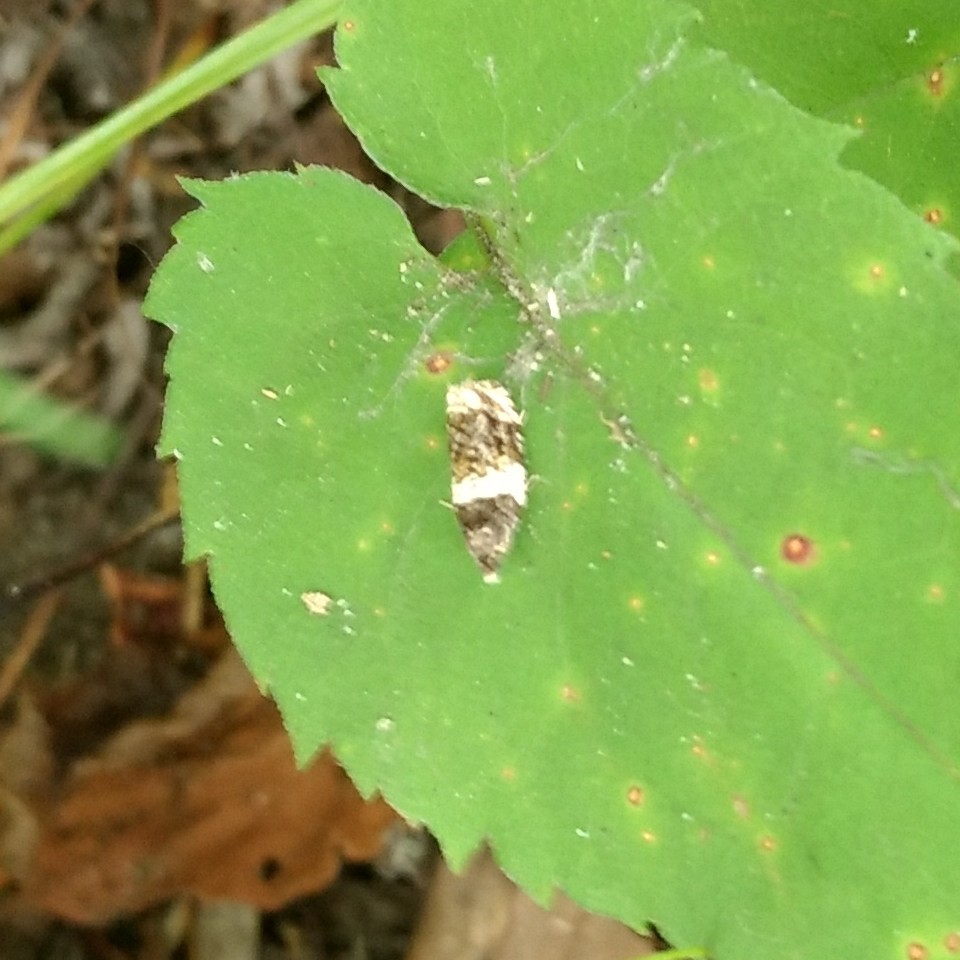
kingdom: Animalia
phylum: Arthropoda
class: Insecta
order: Lepidoptera
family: Tortricidae
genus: Olethreutes
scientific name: Olethreutes fasciatana
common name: Banded olethreutes moth
